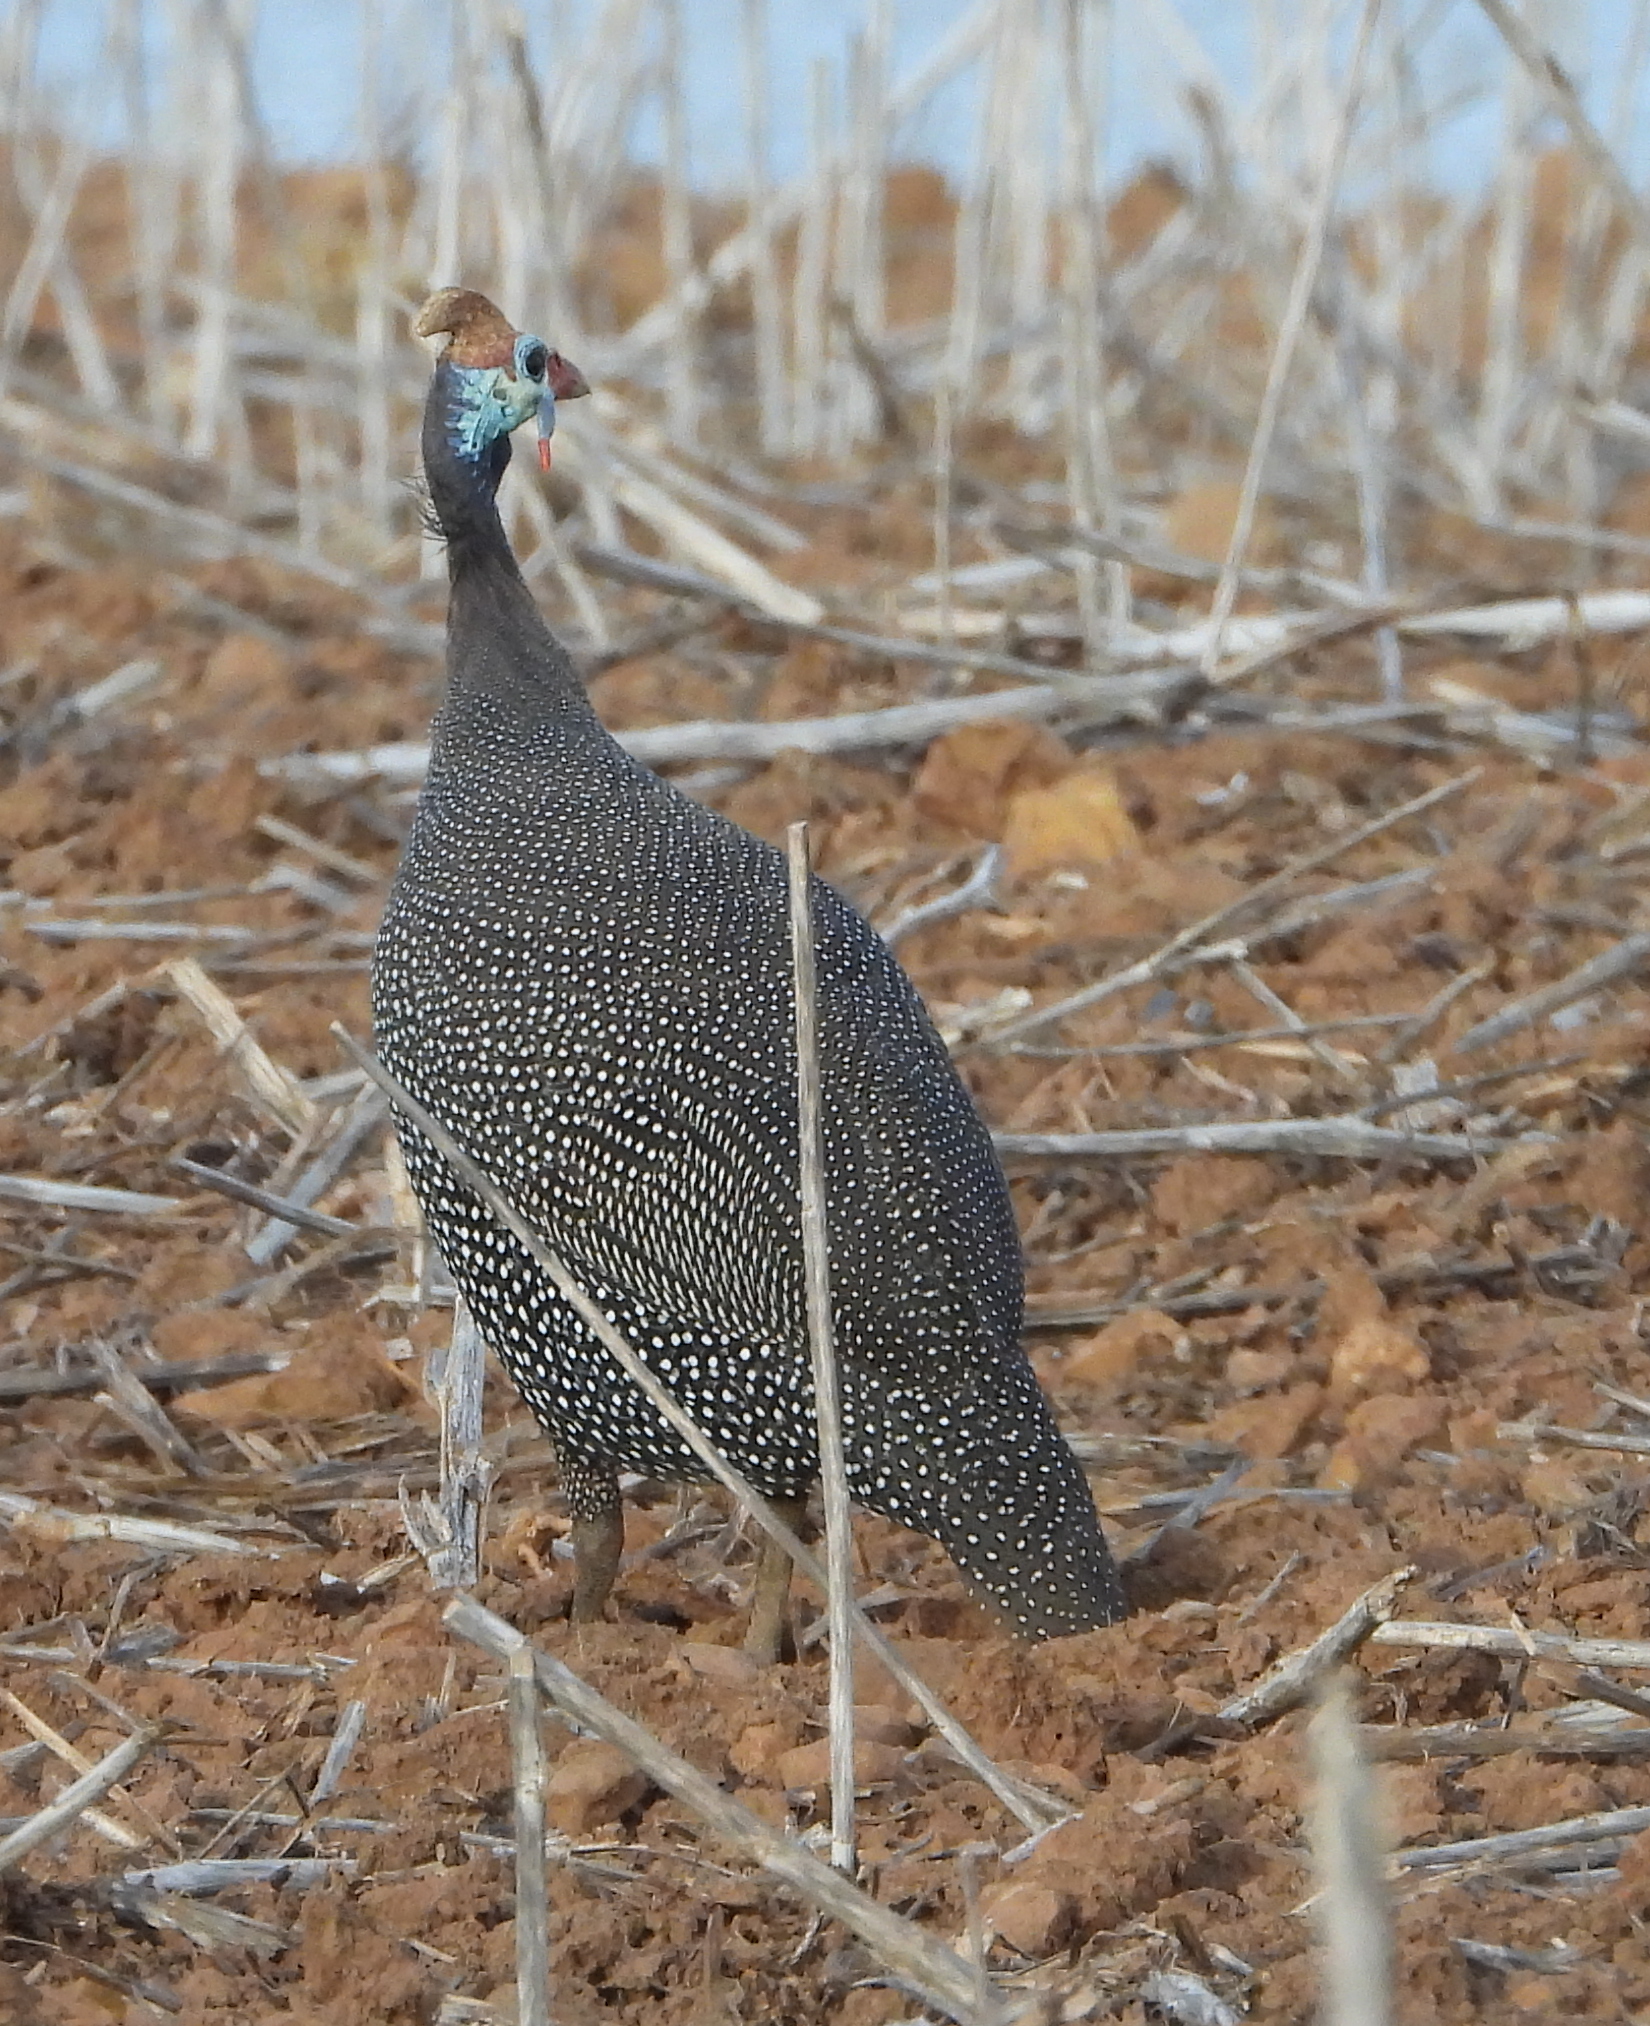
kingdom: Animalia
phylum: Chordata
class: Aves
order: Galliformes
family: Numididae
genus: Numida
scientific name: Numida meleagris
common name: Helmeted guineafowl
